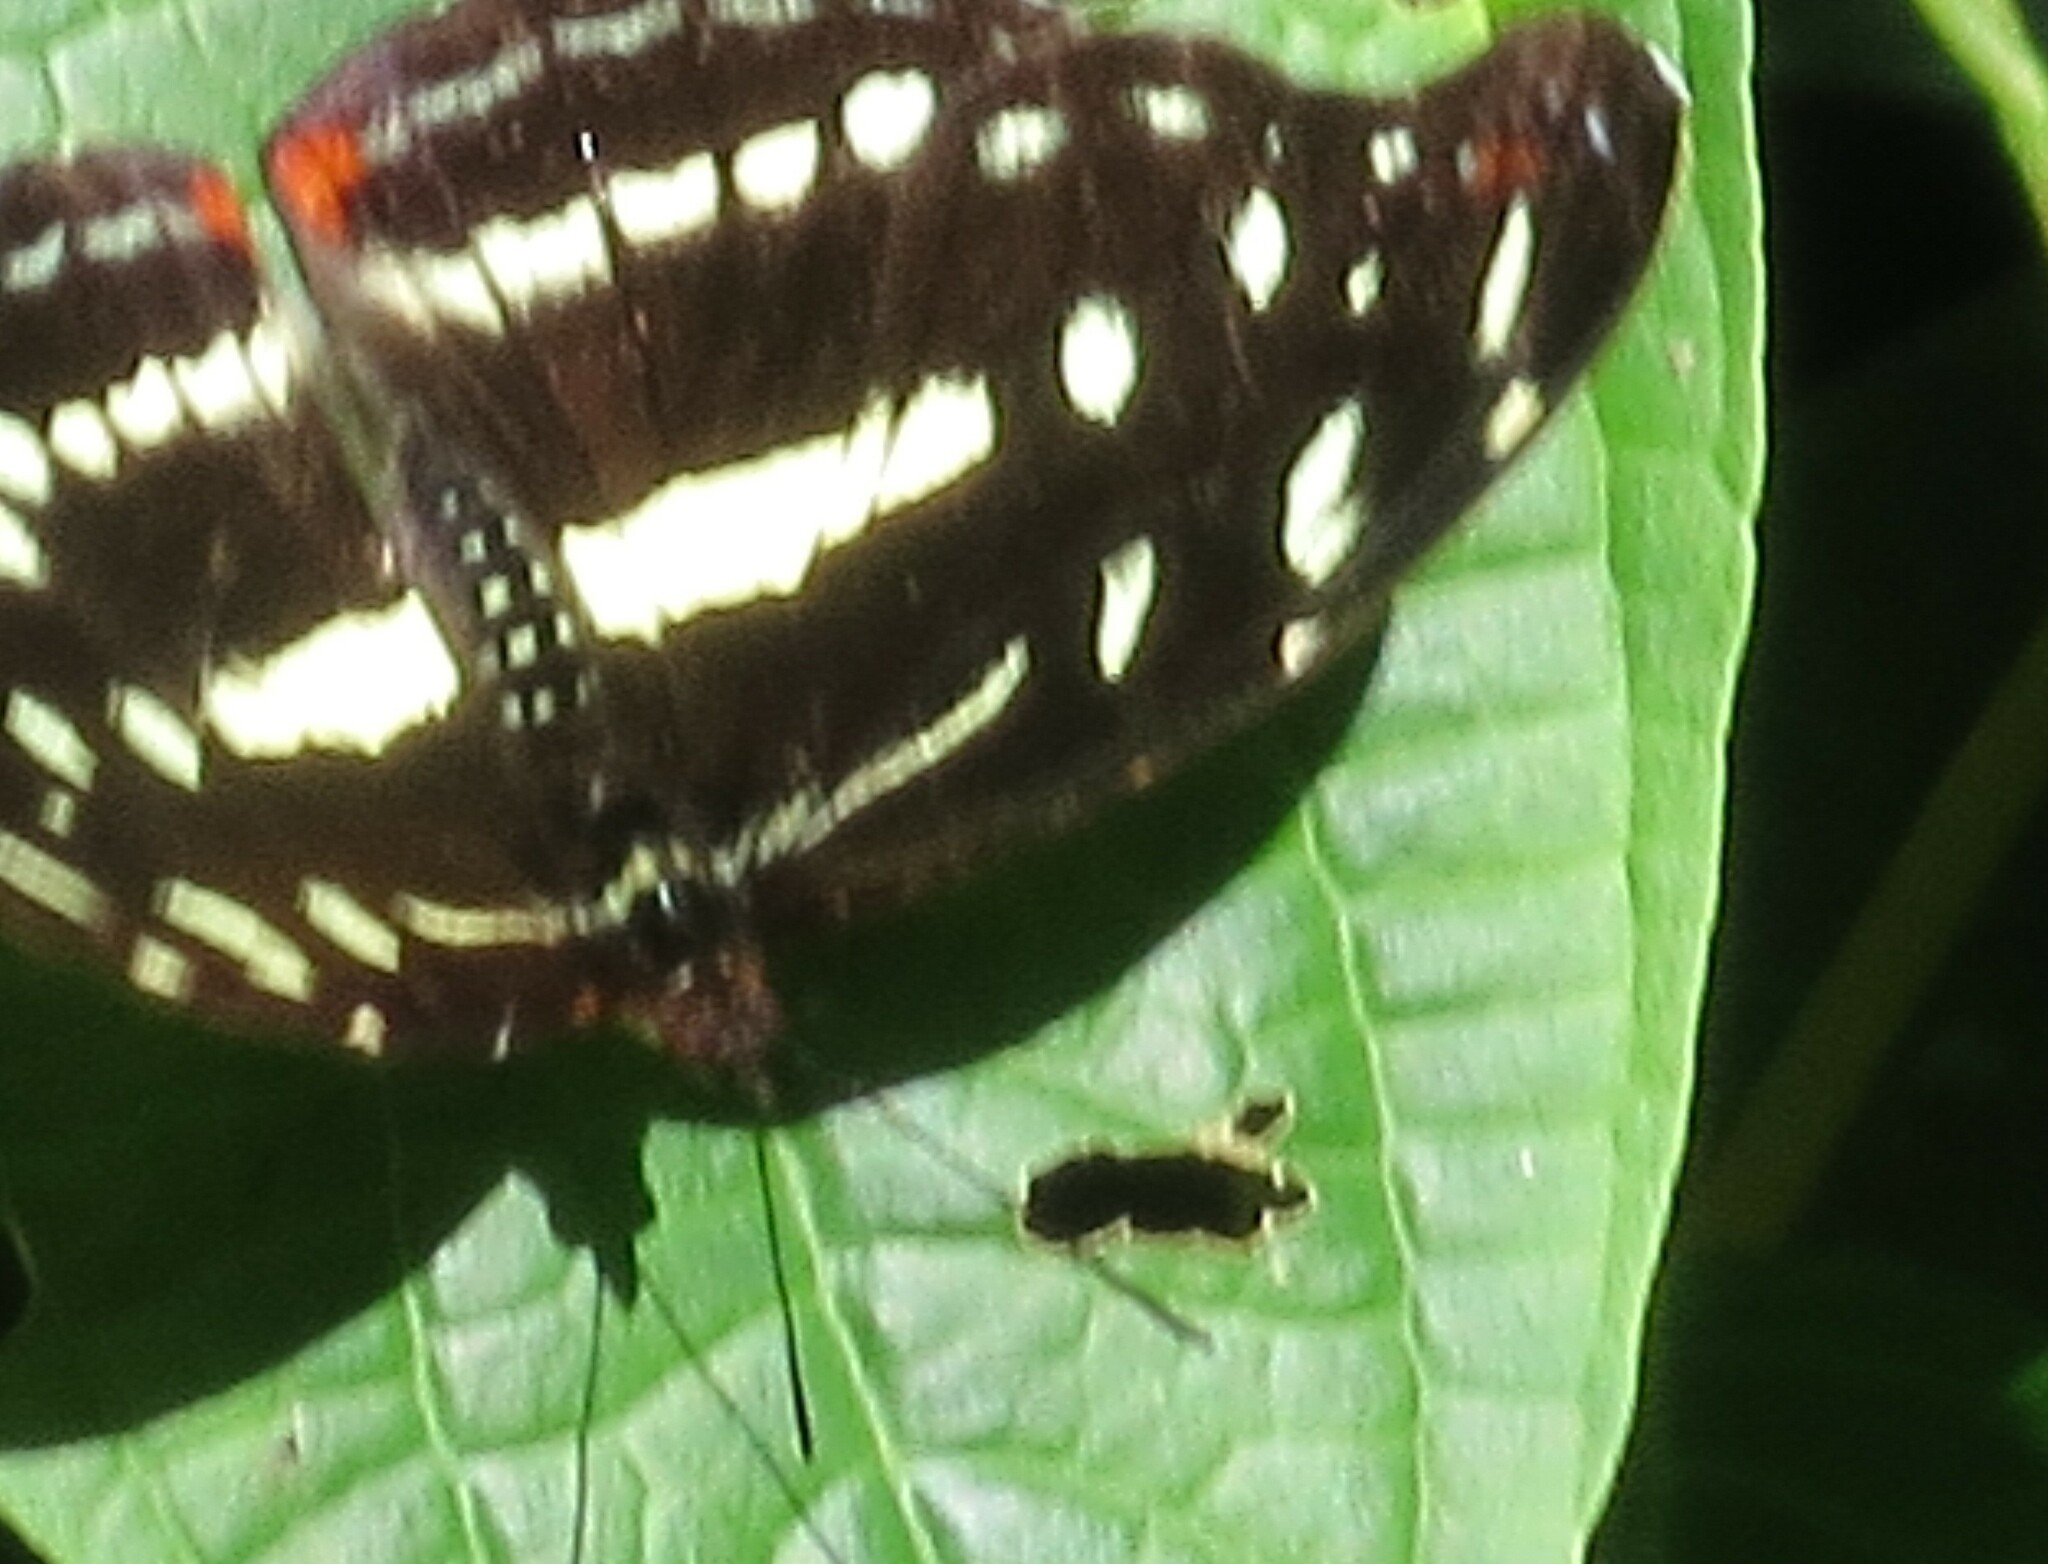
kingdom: Animalia
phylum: Arthropoda
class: Insecta
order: Lepidoptera
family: Nymphalidae
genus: Catonephele
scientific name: Catonephele chromis
